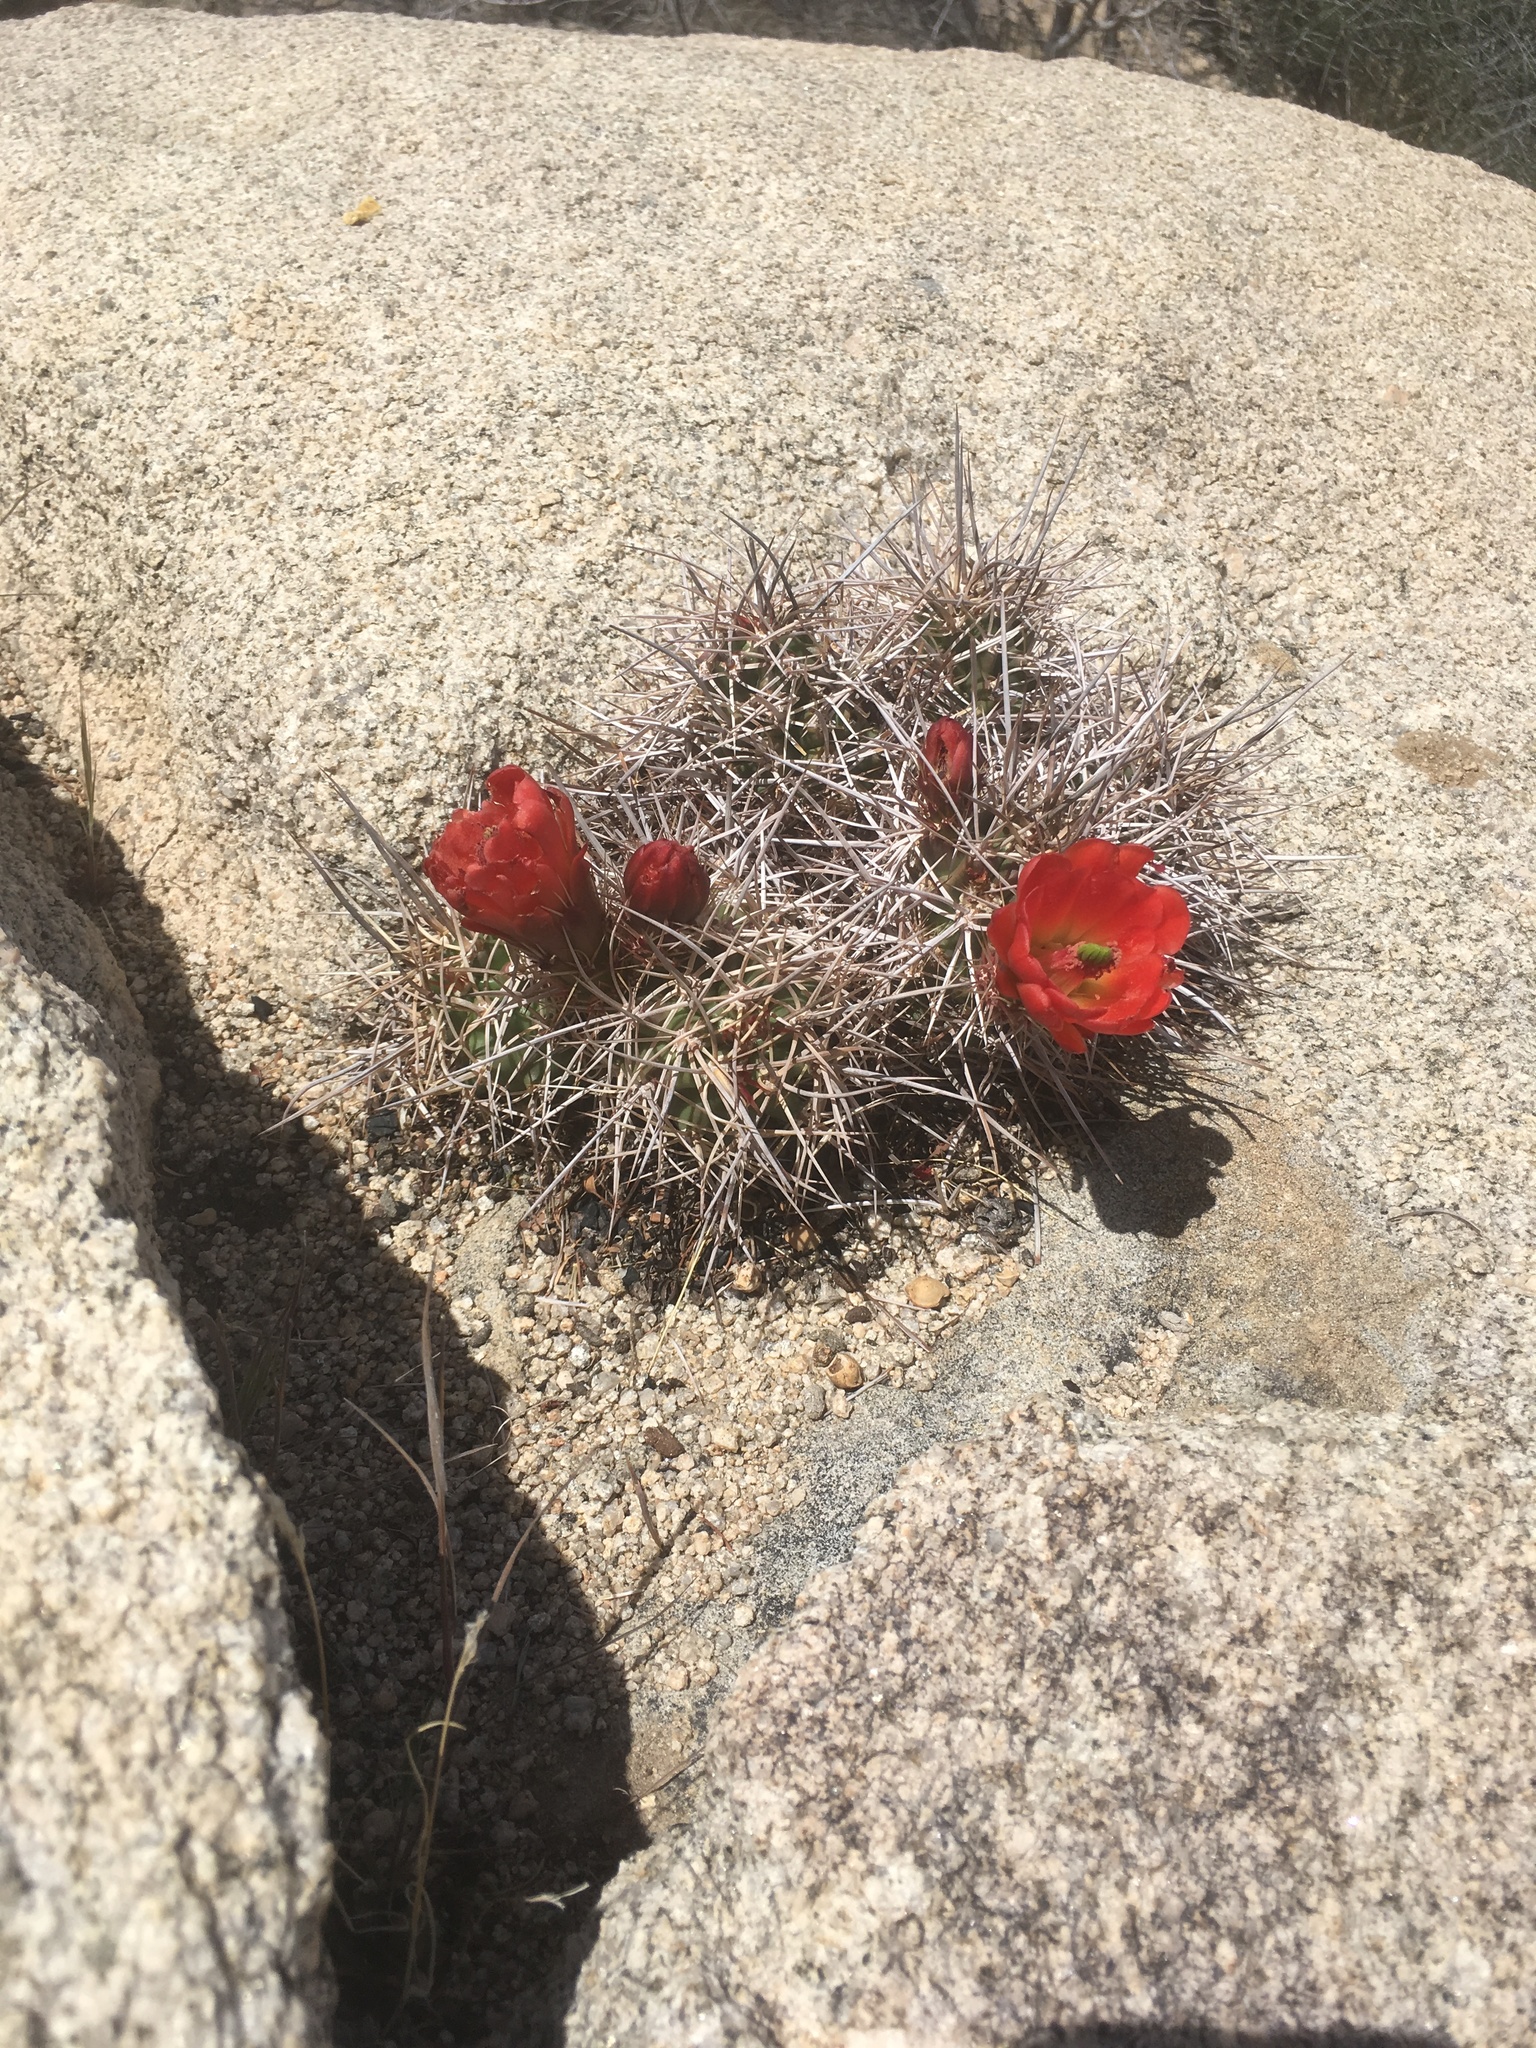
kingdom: Plantae
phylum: Tracheophyta
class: Magnoliopsida
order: Caryophyllales
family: Cactaceae
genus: Echinocereus
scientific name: Echinocereus triglochidiatus
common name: Claretcup hedgehog
